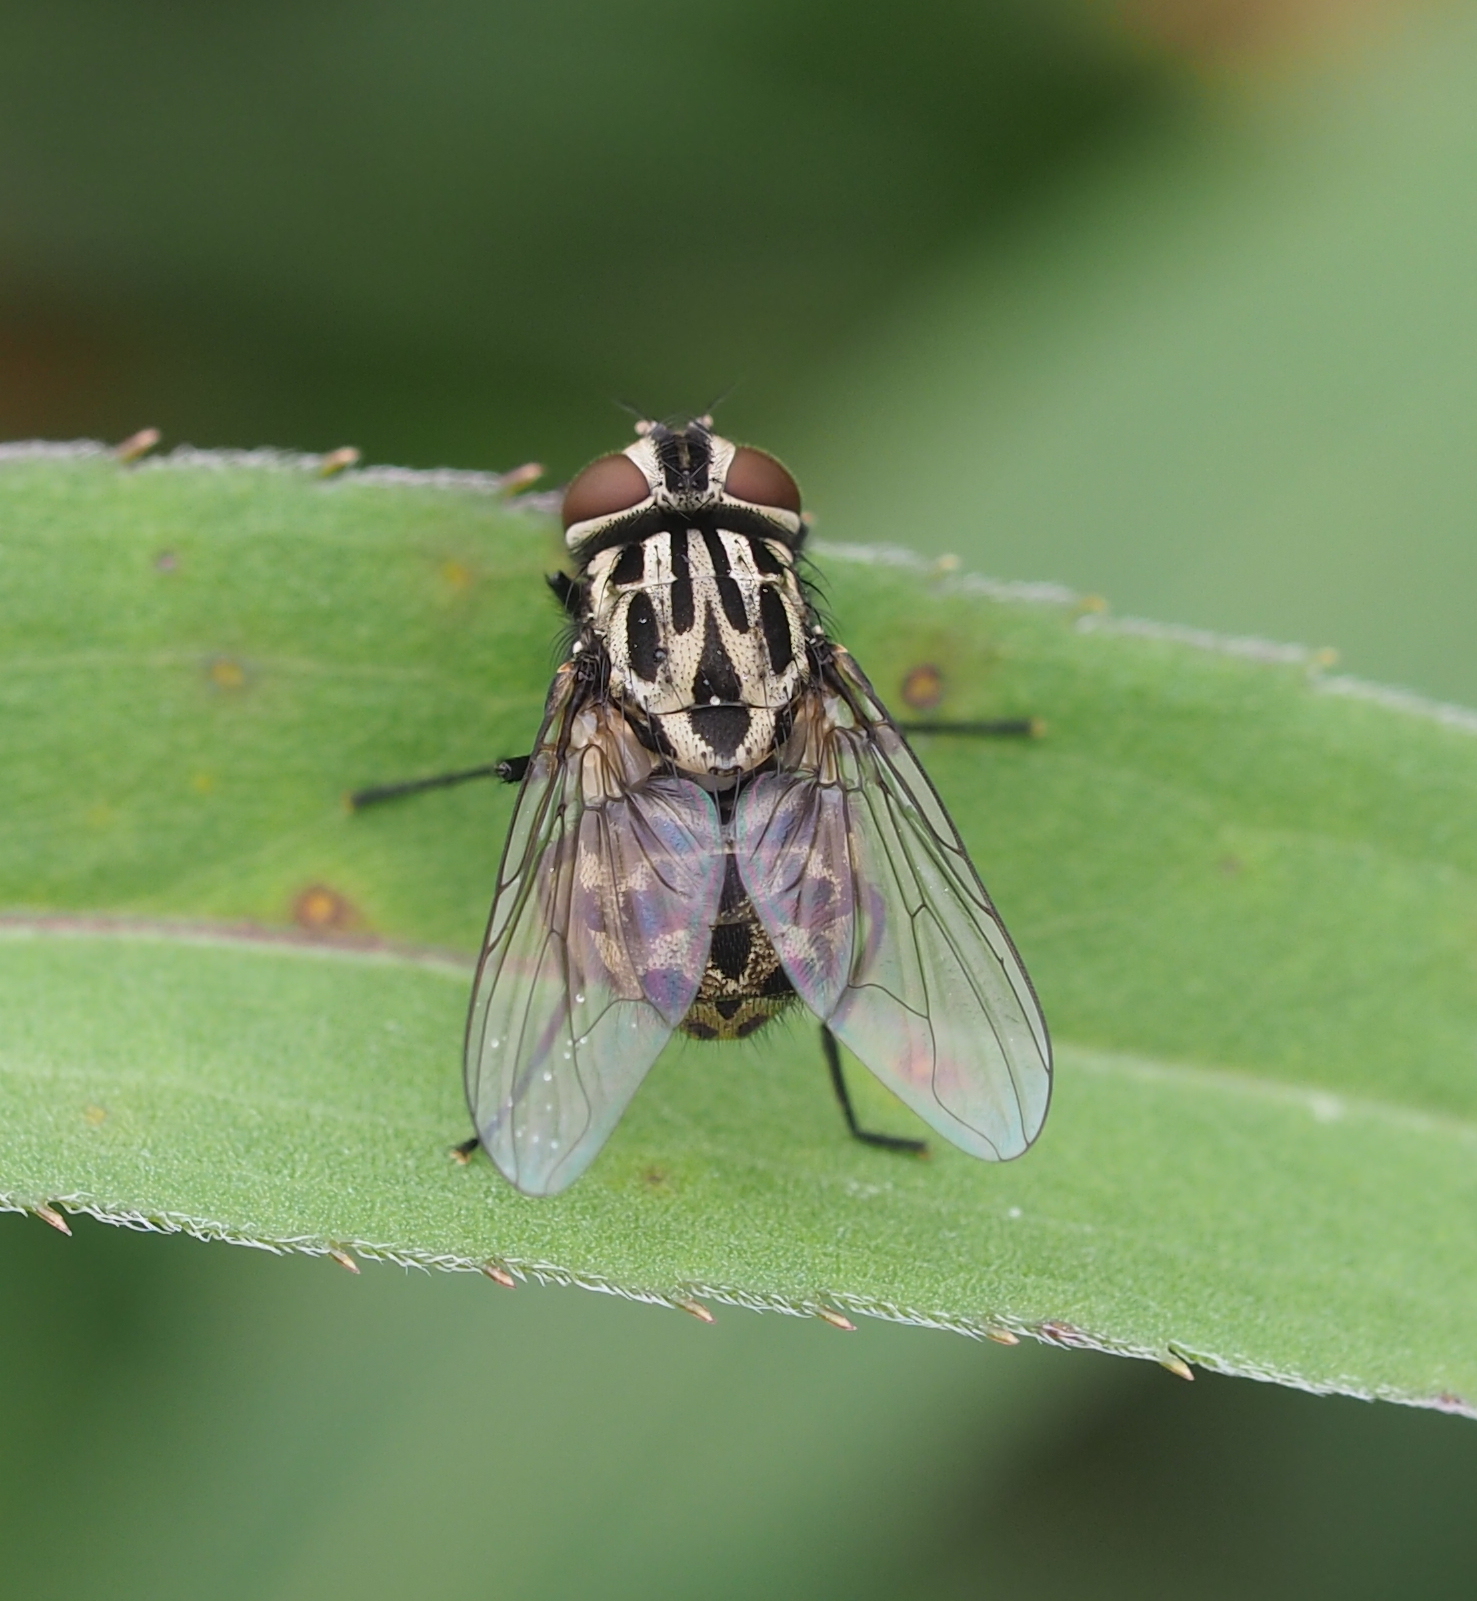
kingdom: Animalia
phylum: Arthropoda
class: Insecta
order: Diptera
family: Muscidae
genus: Graphomya
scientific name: Graphomya maculata
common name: Muscid fly
